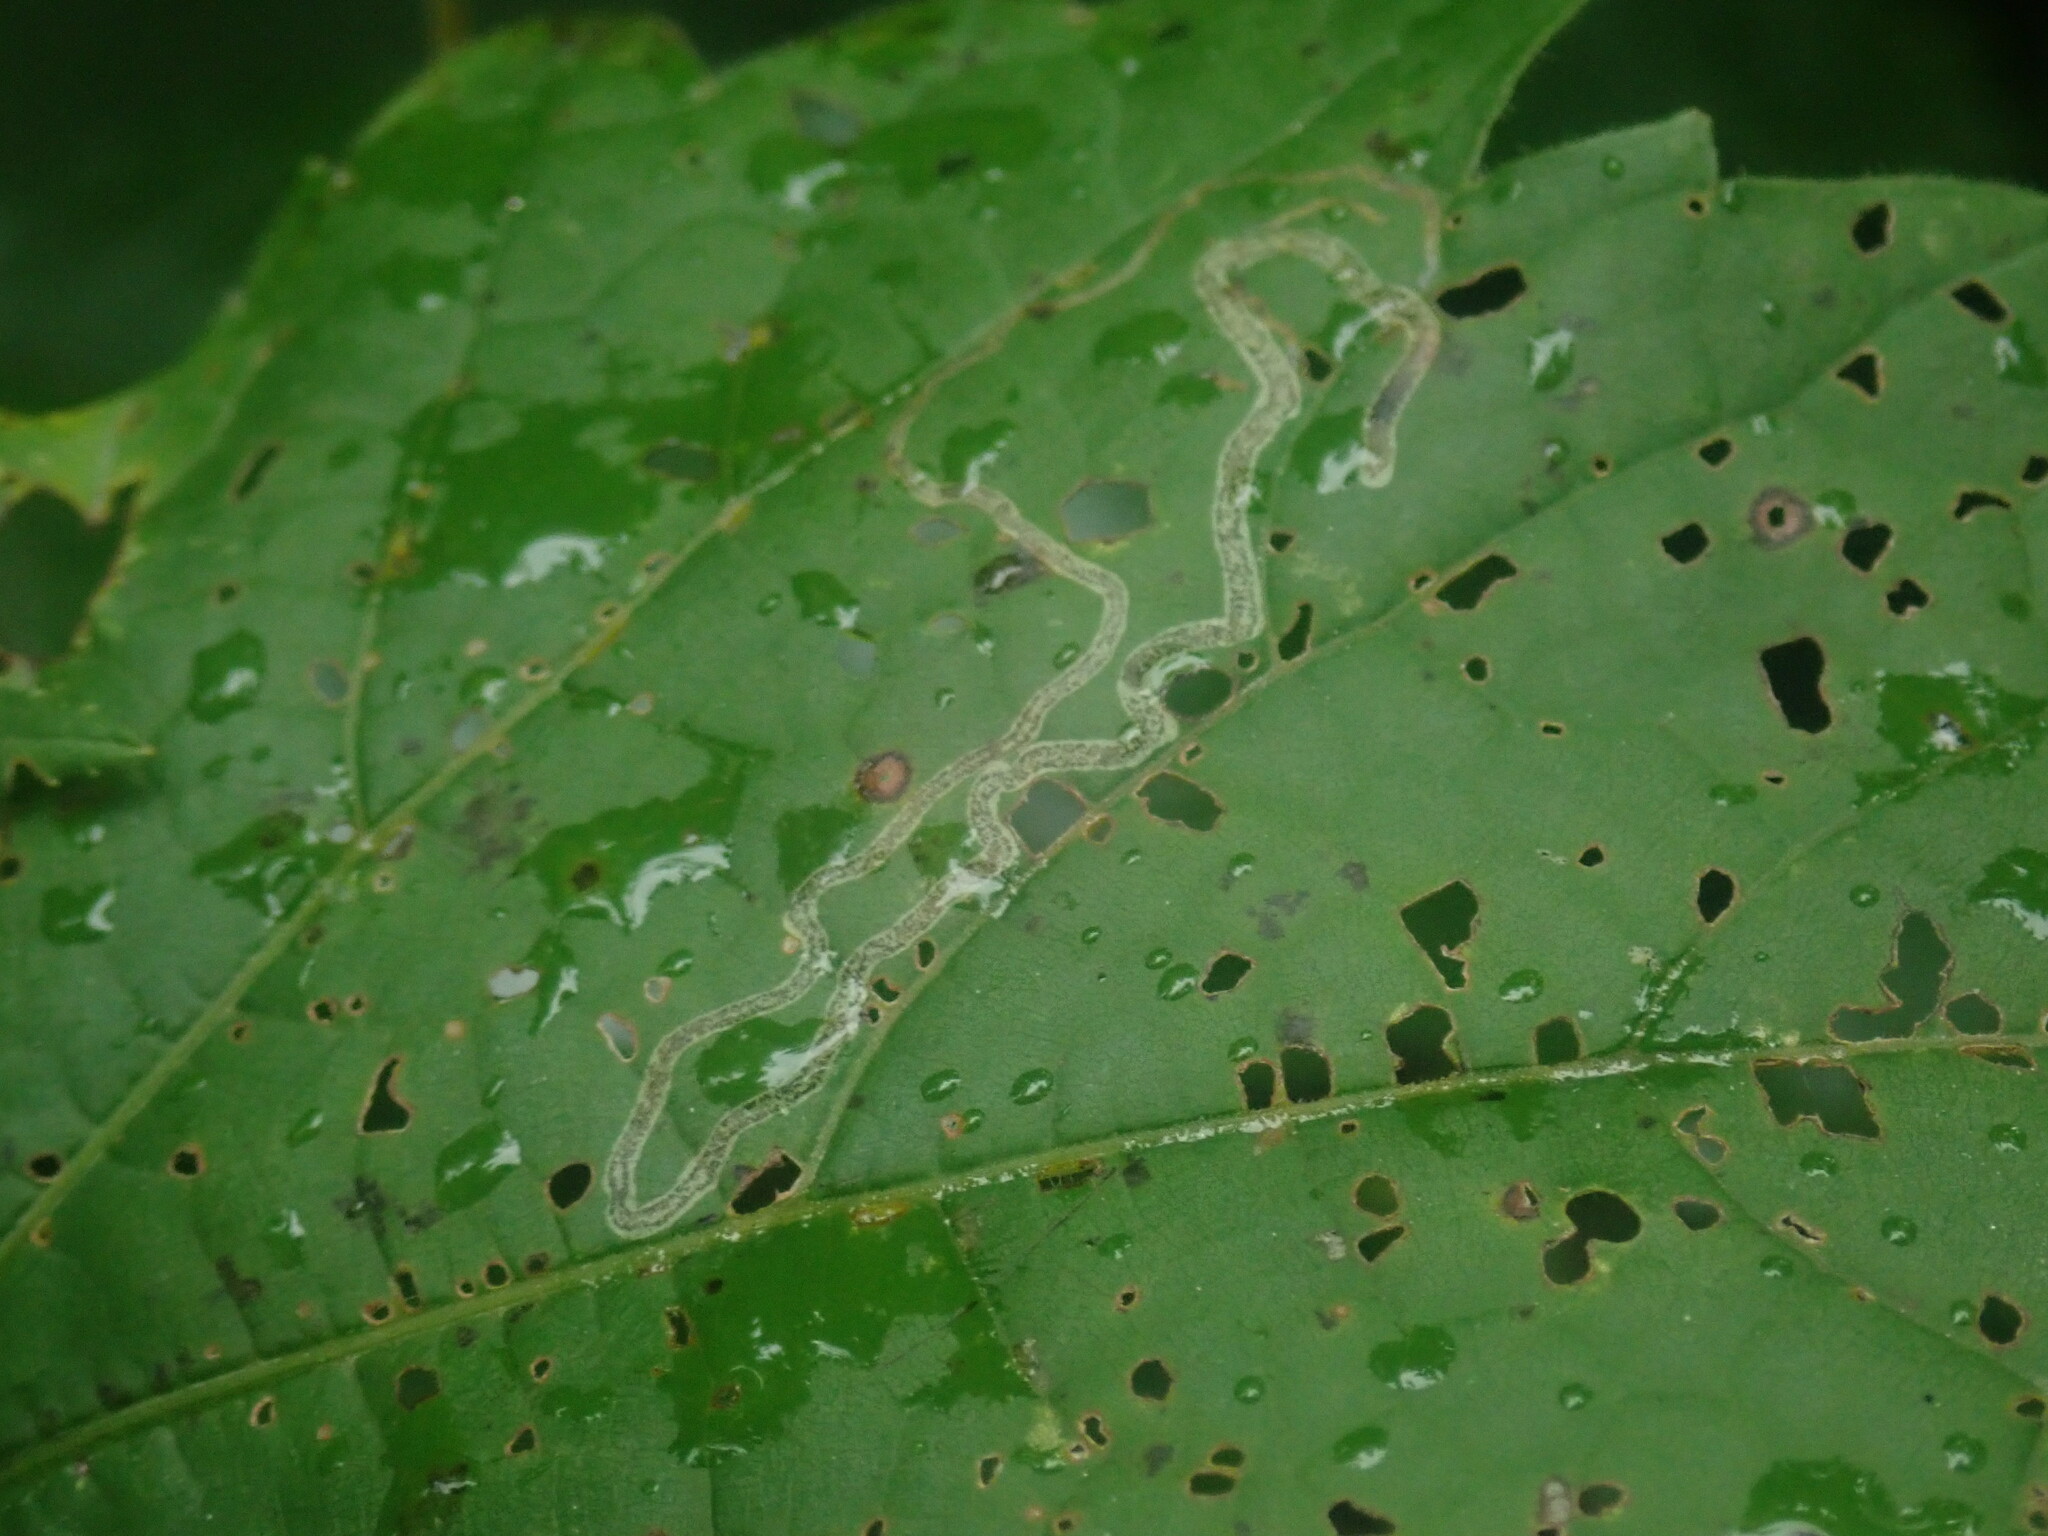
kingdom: Animalia
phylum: Arthropoda
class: Insecta
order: Lepidoptera
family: Gracillariidae
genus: Phyllocnistis
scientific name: Phyllocnistis vitifoliella
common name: Grape leaf-miner moth
